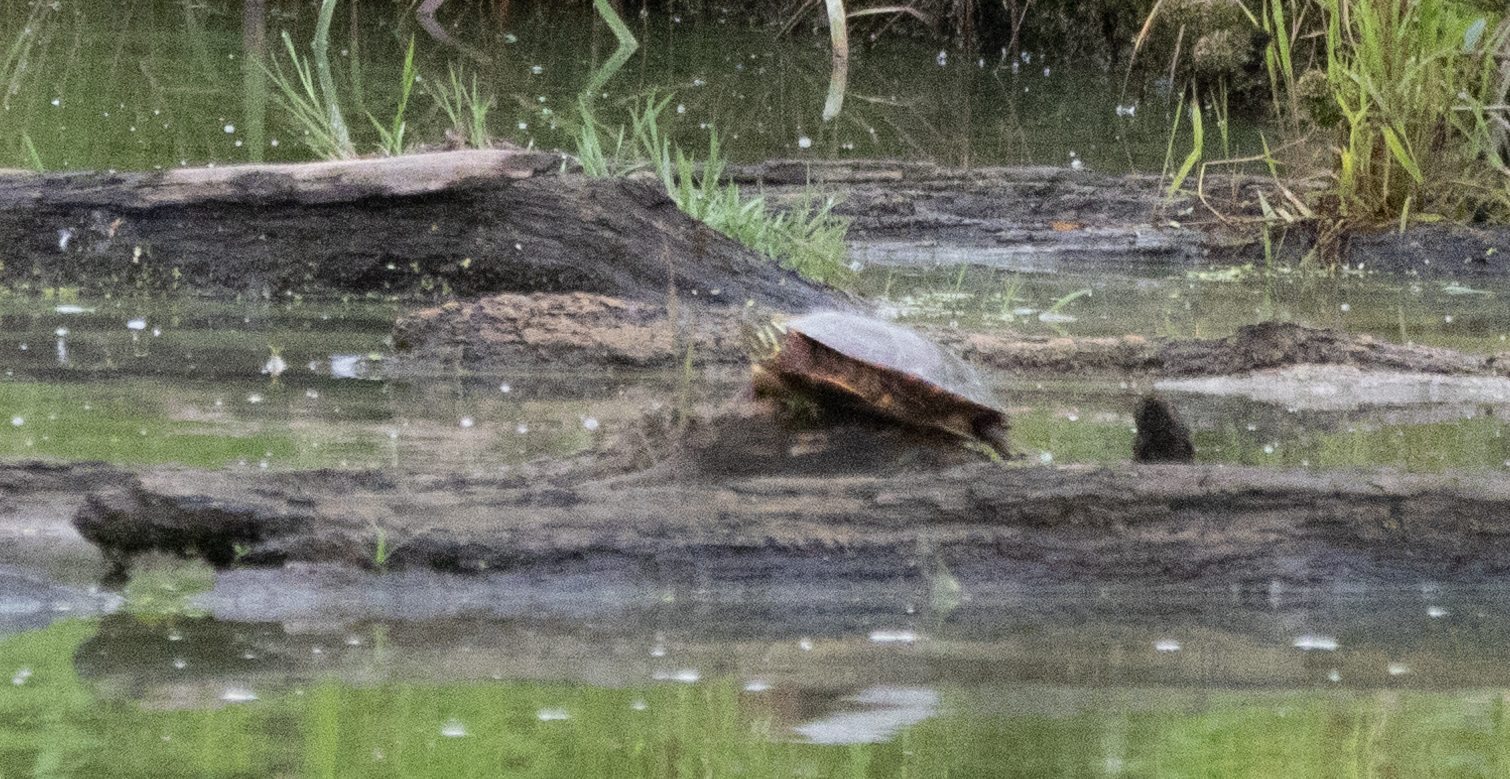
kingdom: Animalia
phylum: Chordata
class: Testudines
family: Emydidae
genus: Chrysemys
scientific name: Chrysemys picta
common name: Painted turtle
